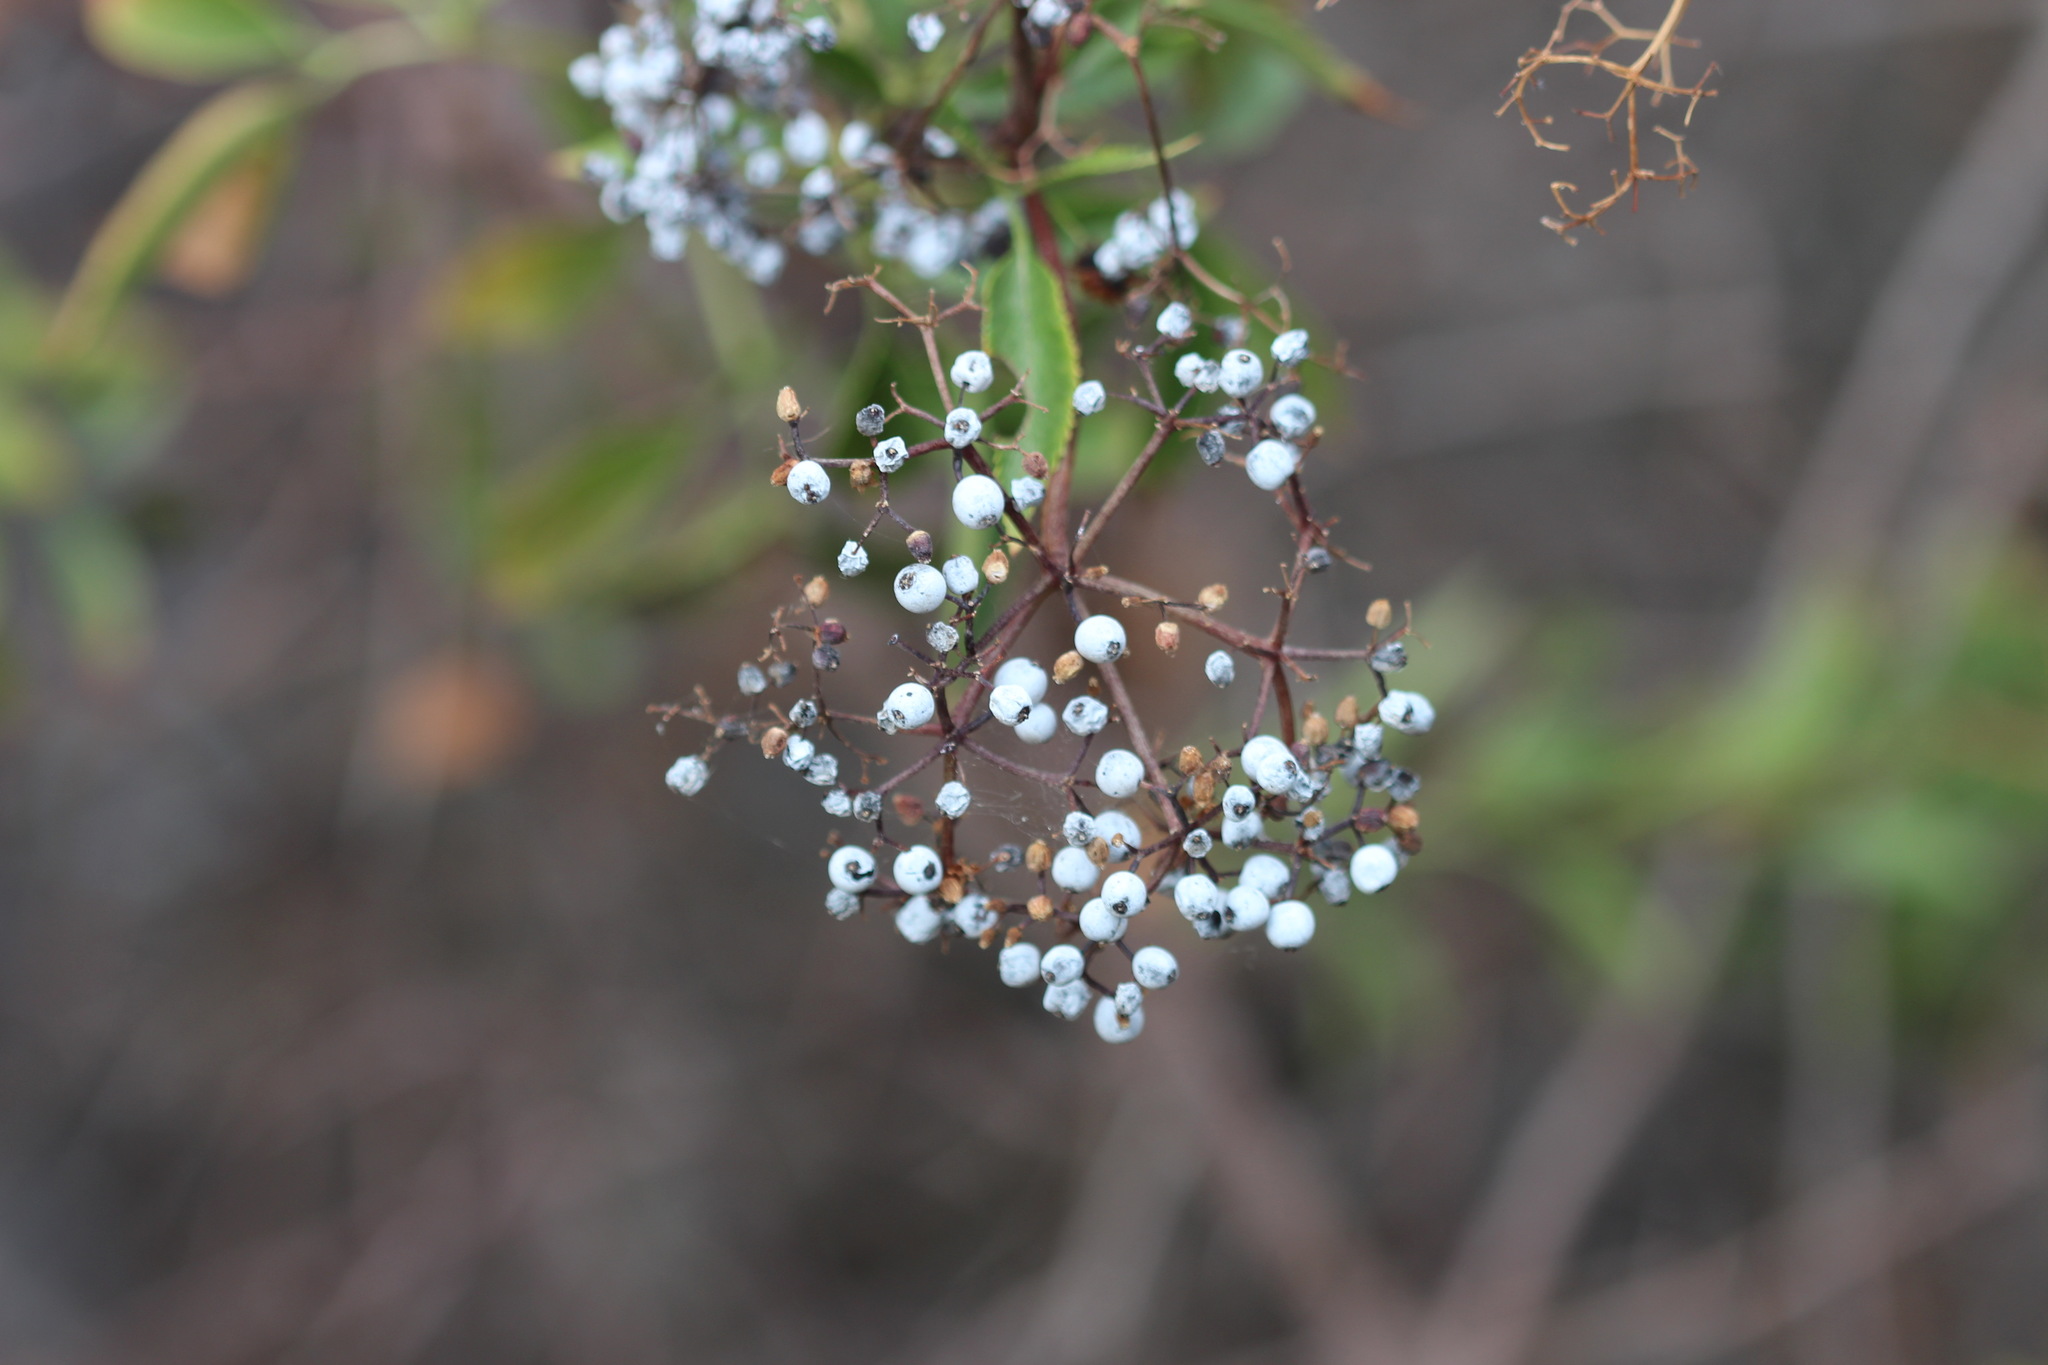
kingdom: Plantae
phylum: Tracheophyta
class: Magnoliopsida
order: Dipsacales
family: Viburnaceae
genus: Sambucus
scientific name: Sambucus cerulea
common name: Blue elder
